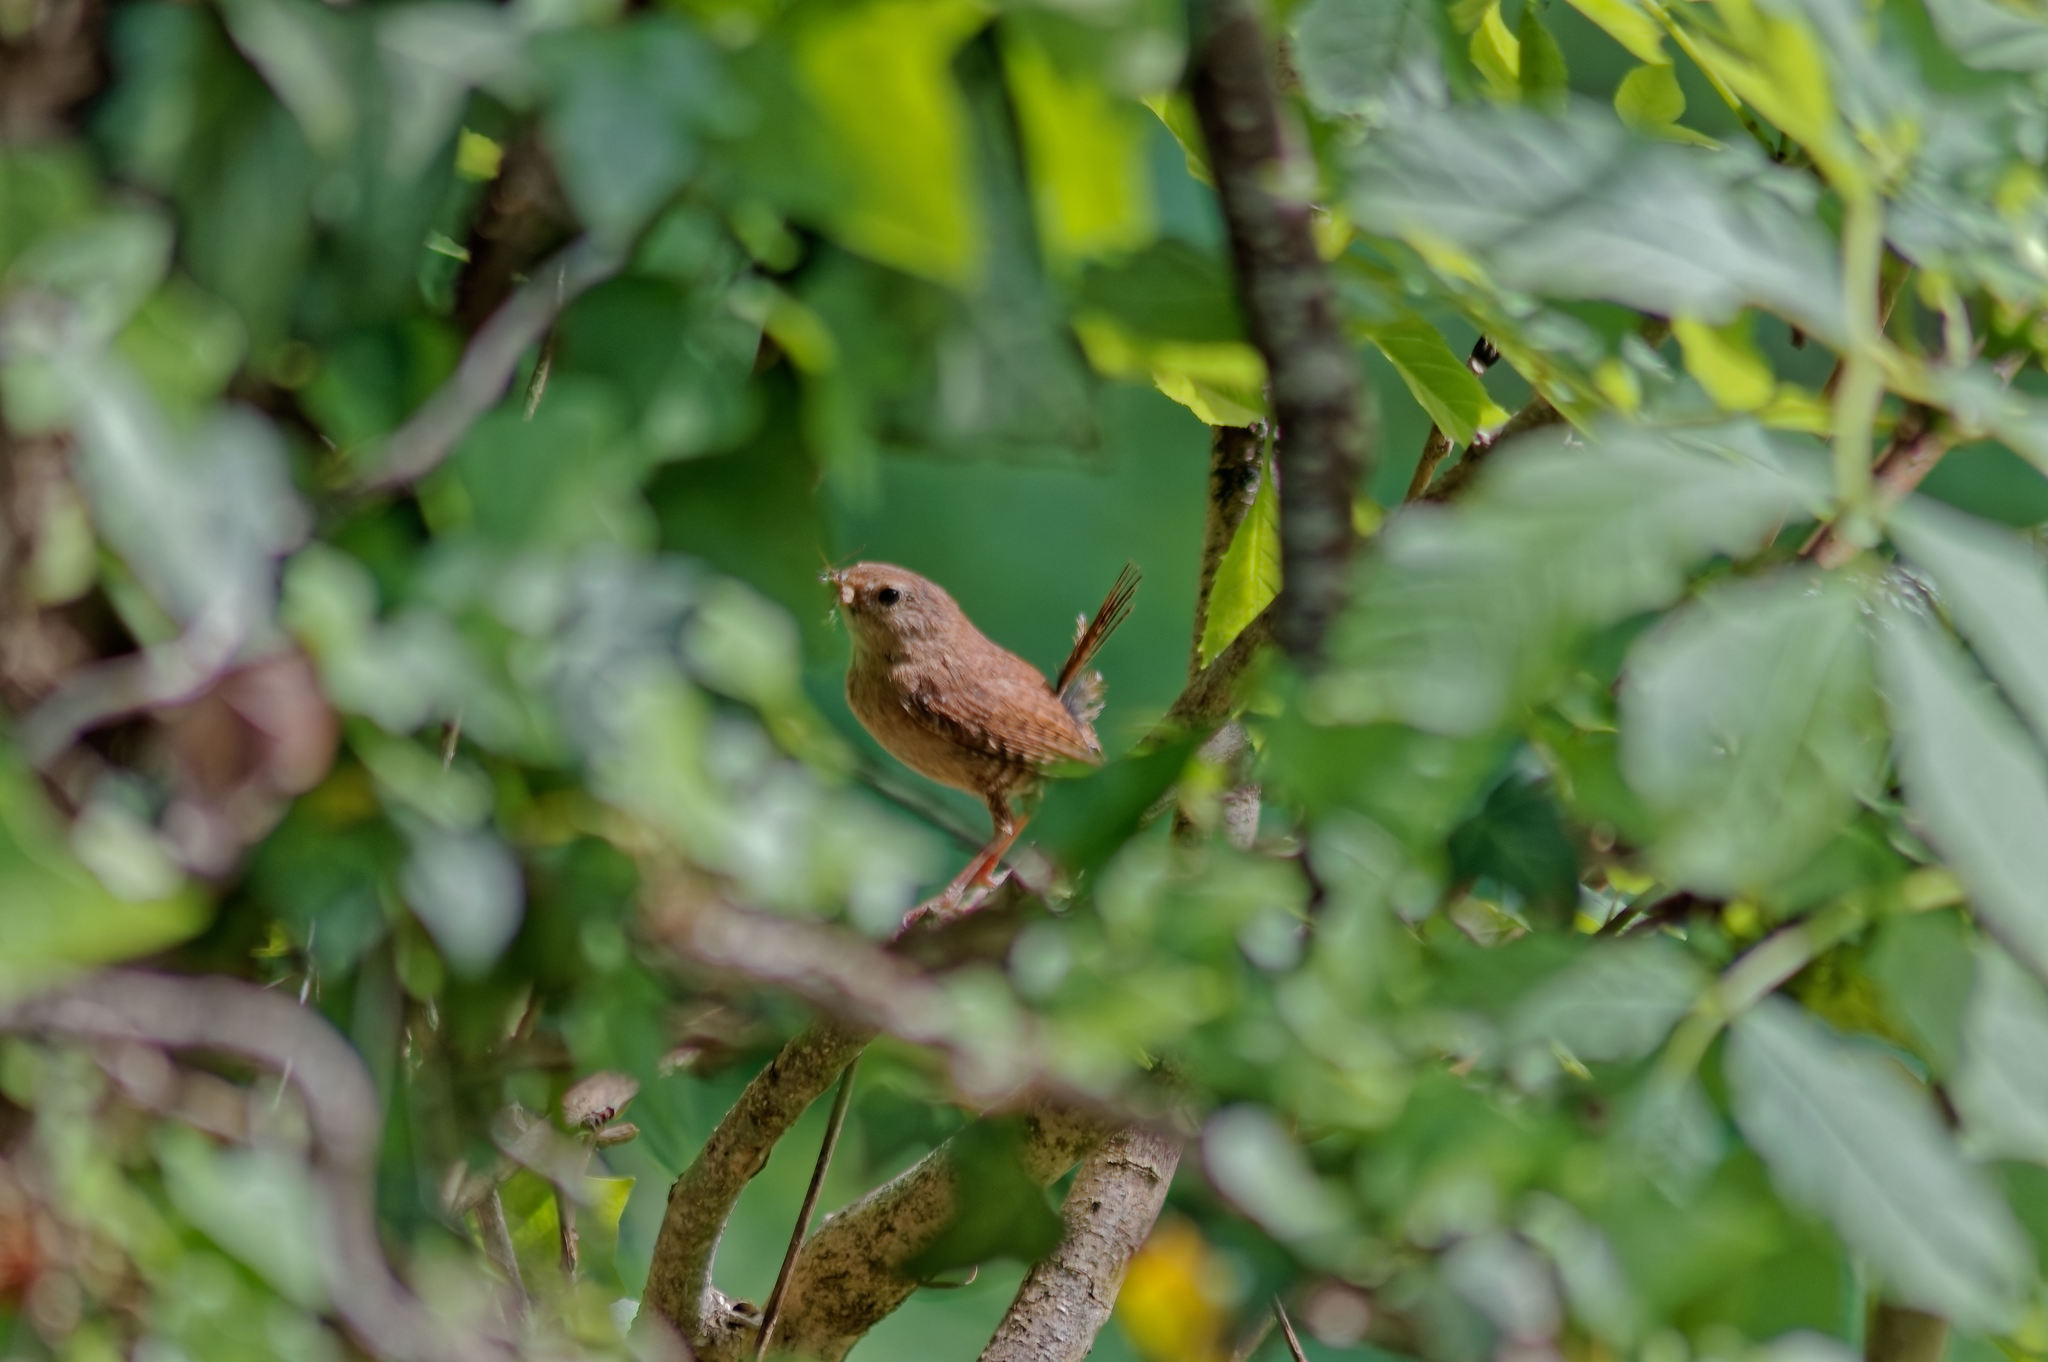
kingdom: Animalia
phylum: Chordata
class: Aves
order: Passeriformes
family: Troglodytidae
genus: Troglodytes
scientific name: Troglodytes troglodytes
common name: Eurasian wren
